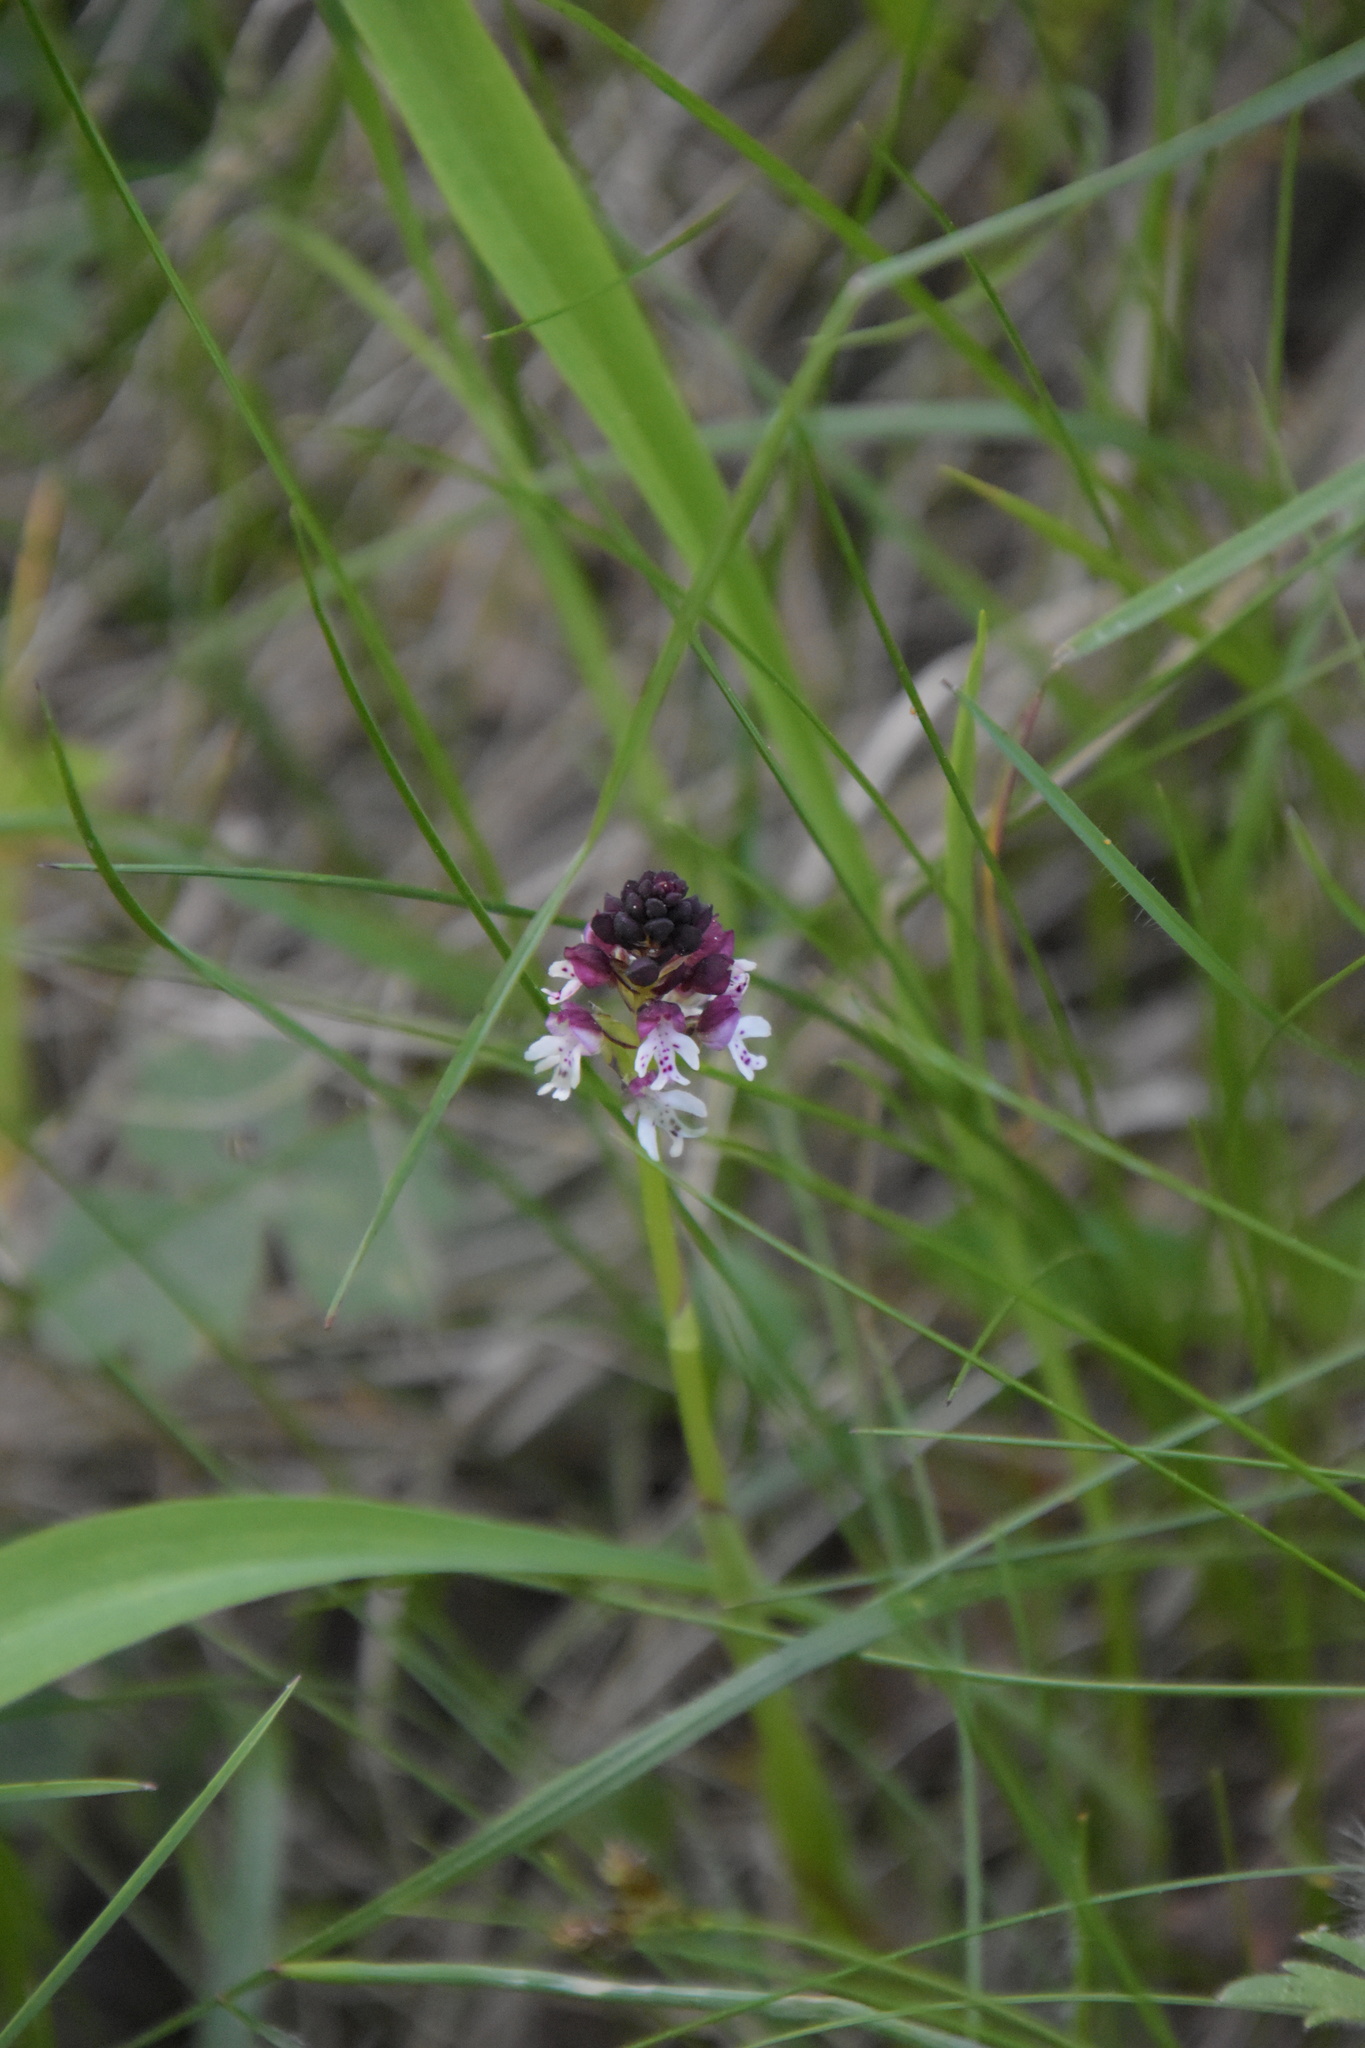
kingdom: Plantae
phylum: Tracheophyta
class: Liliopsida
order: Asparagales
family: Orchidaceae
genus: Neotinea
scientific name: Neotinea ustulata
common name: Burnt orchid
